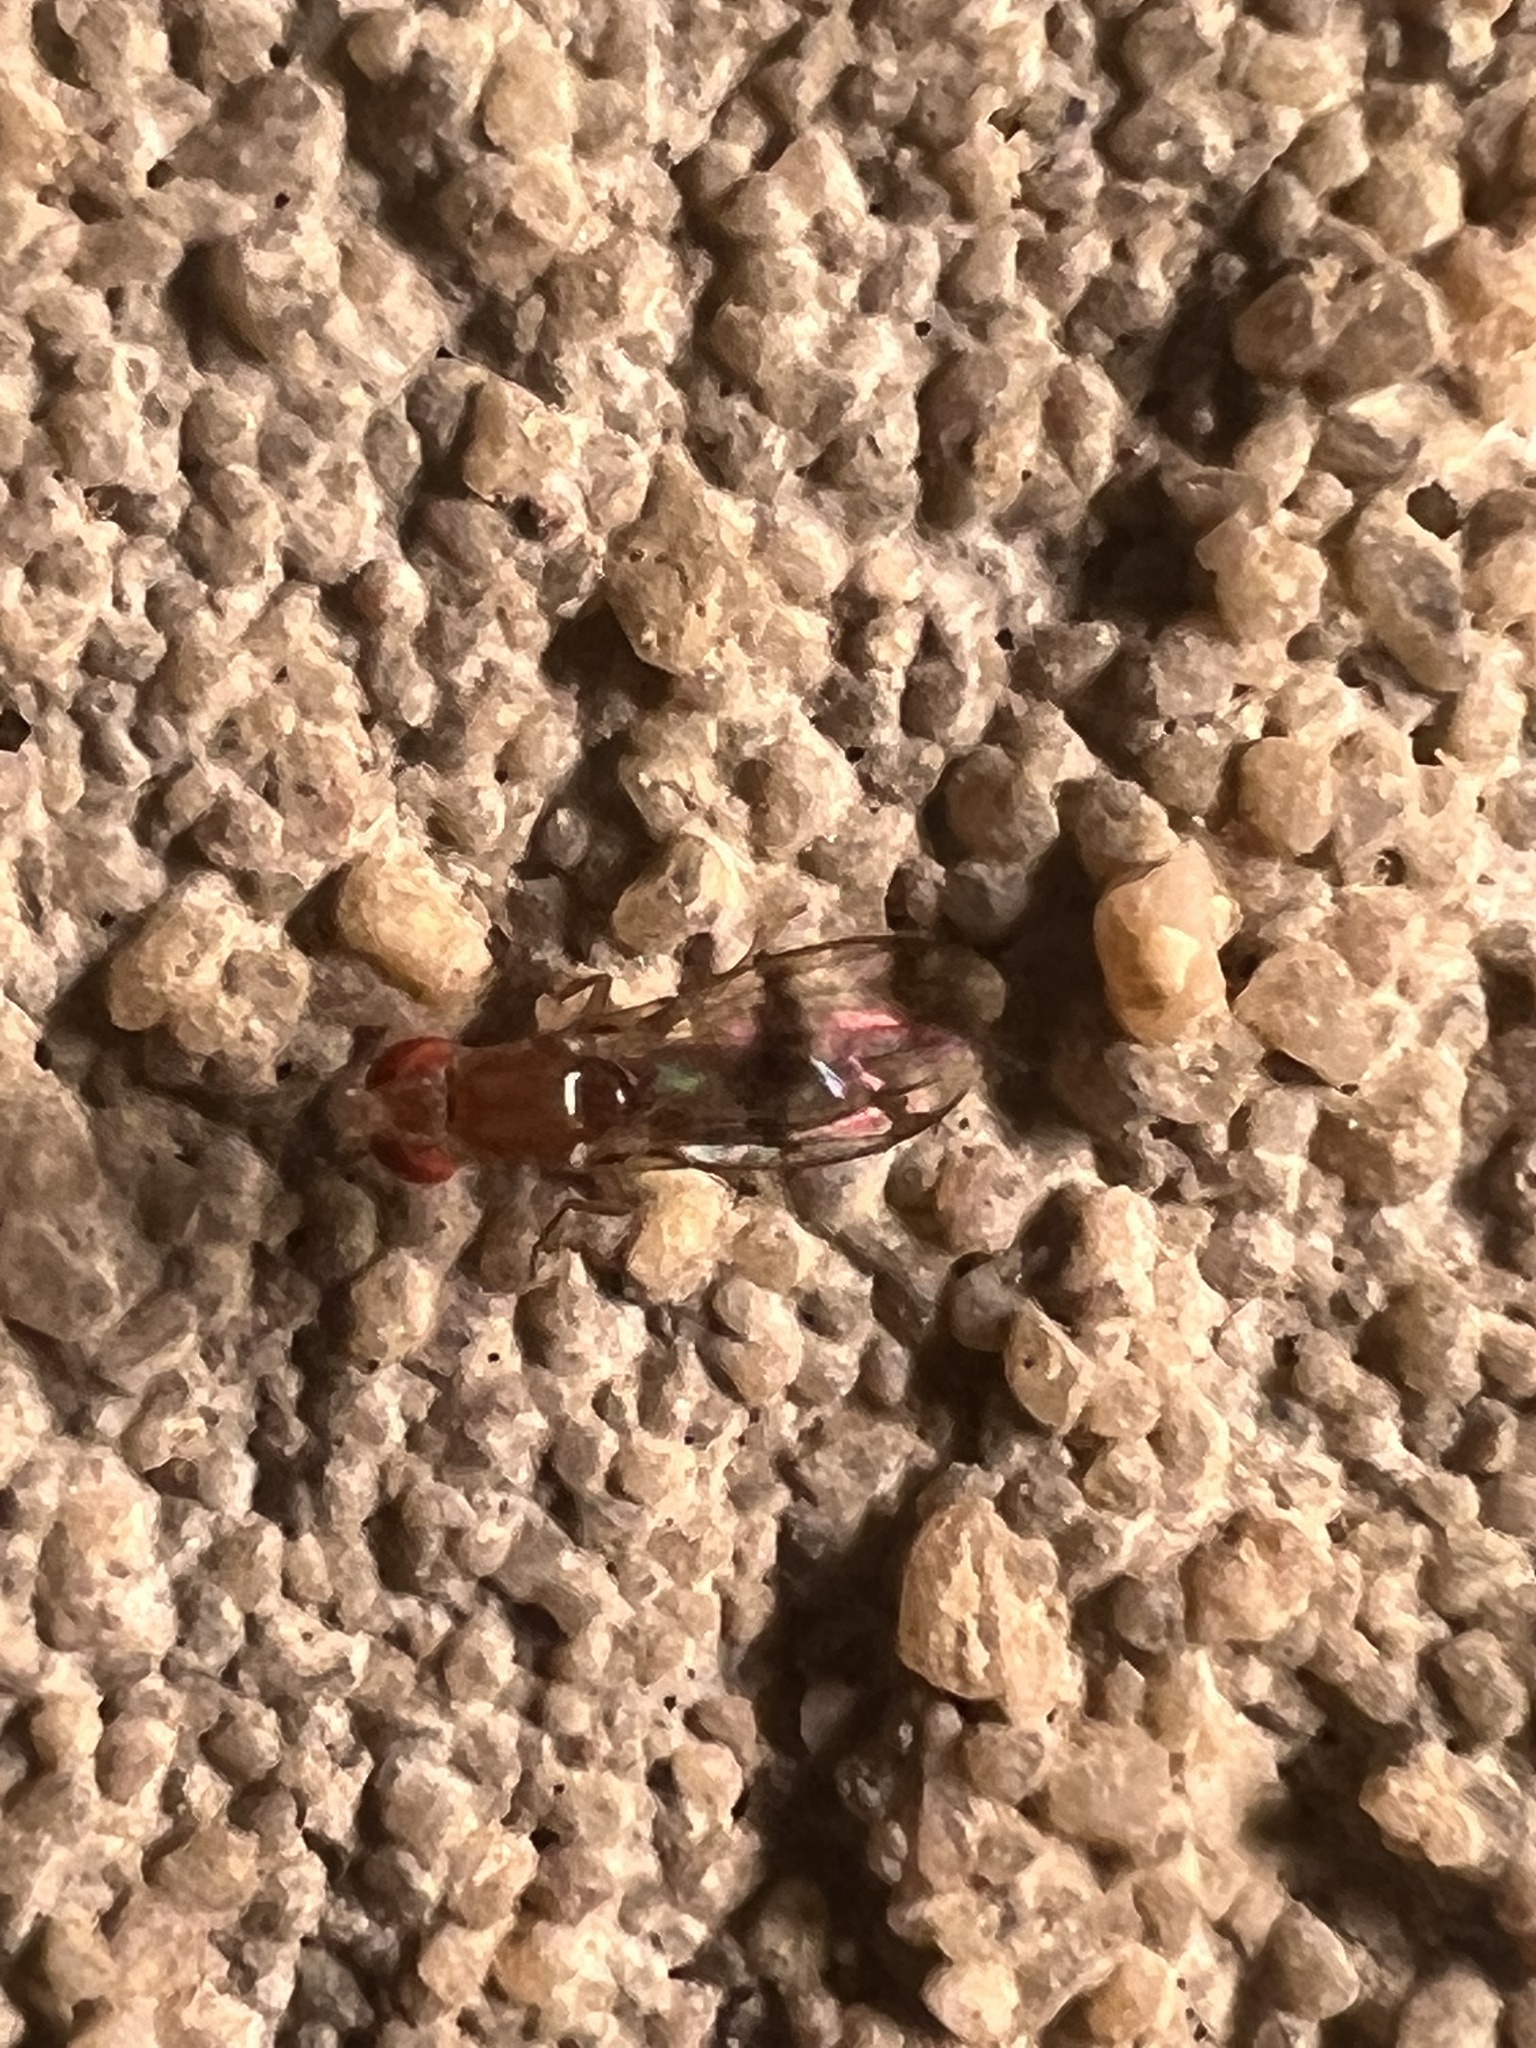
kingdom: Animalia
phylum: Arthropoda
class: Insecta
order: Diptera
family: Drosophilidae
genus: Chymomyza
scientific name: Chymomyza amoena
